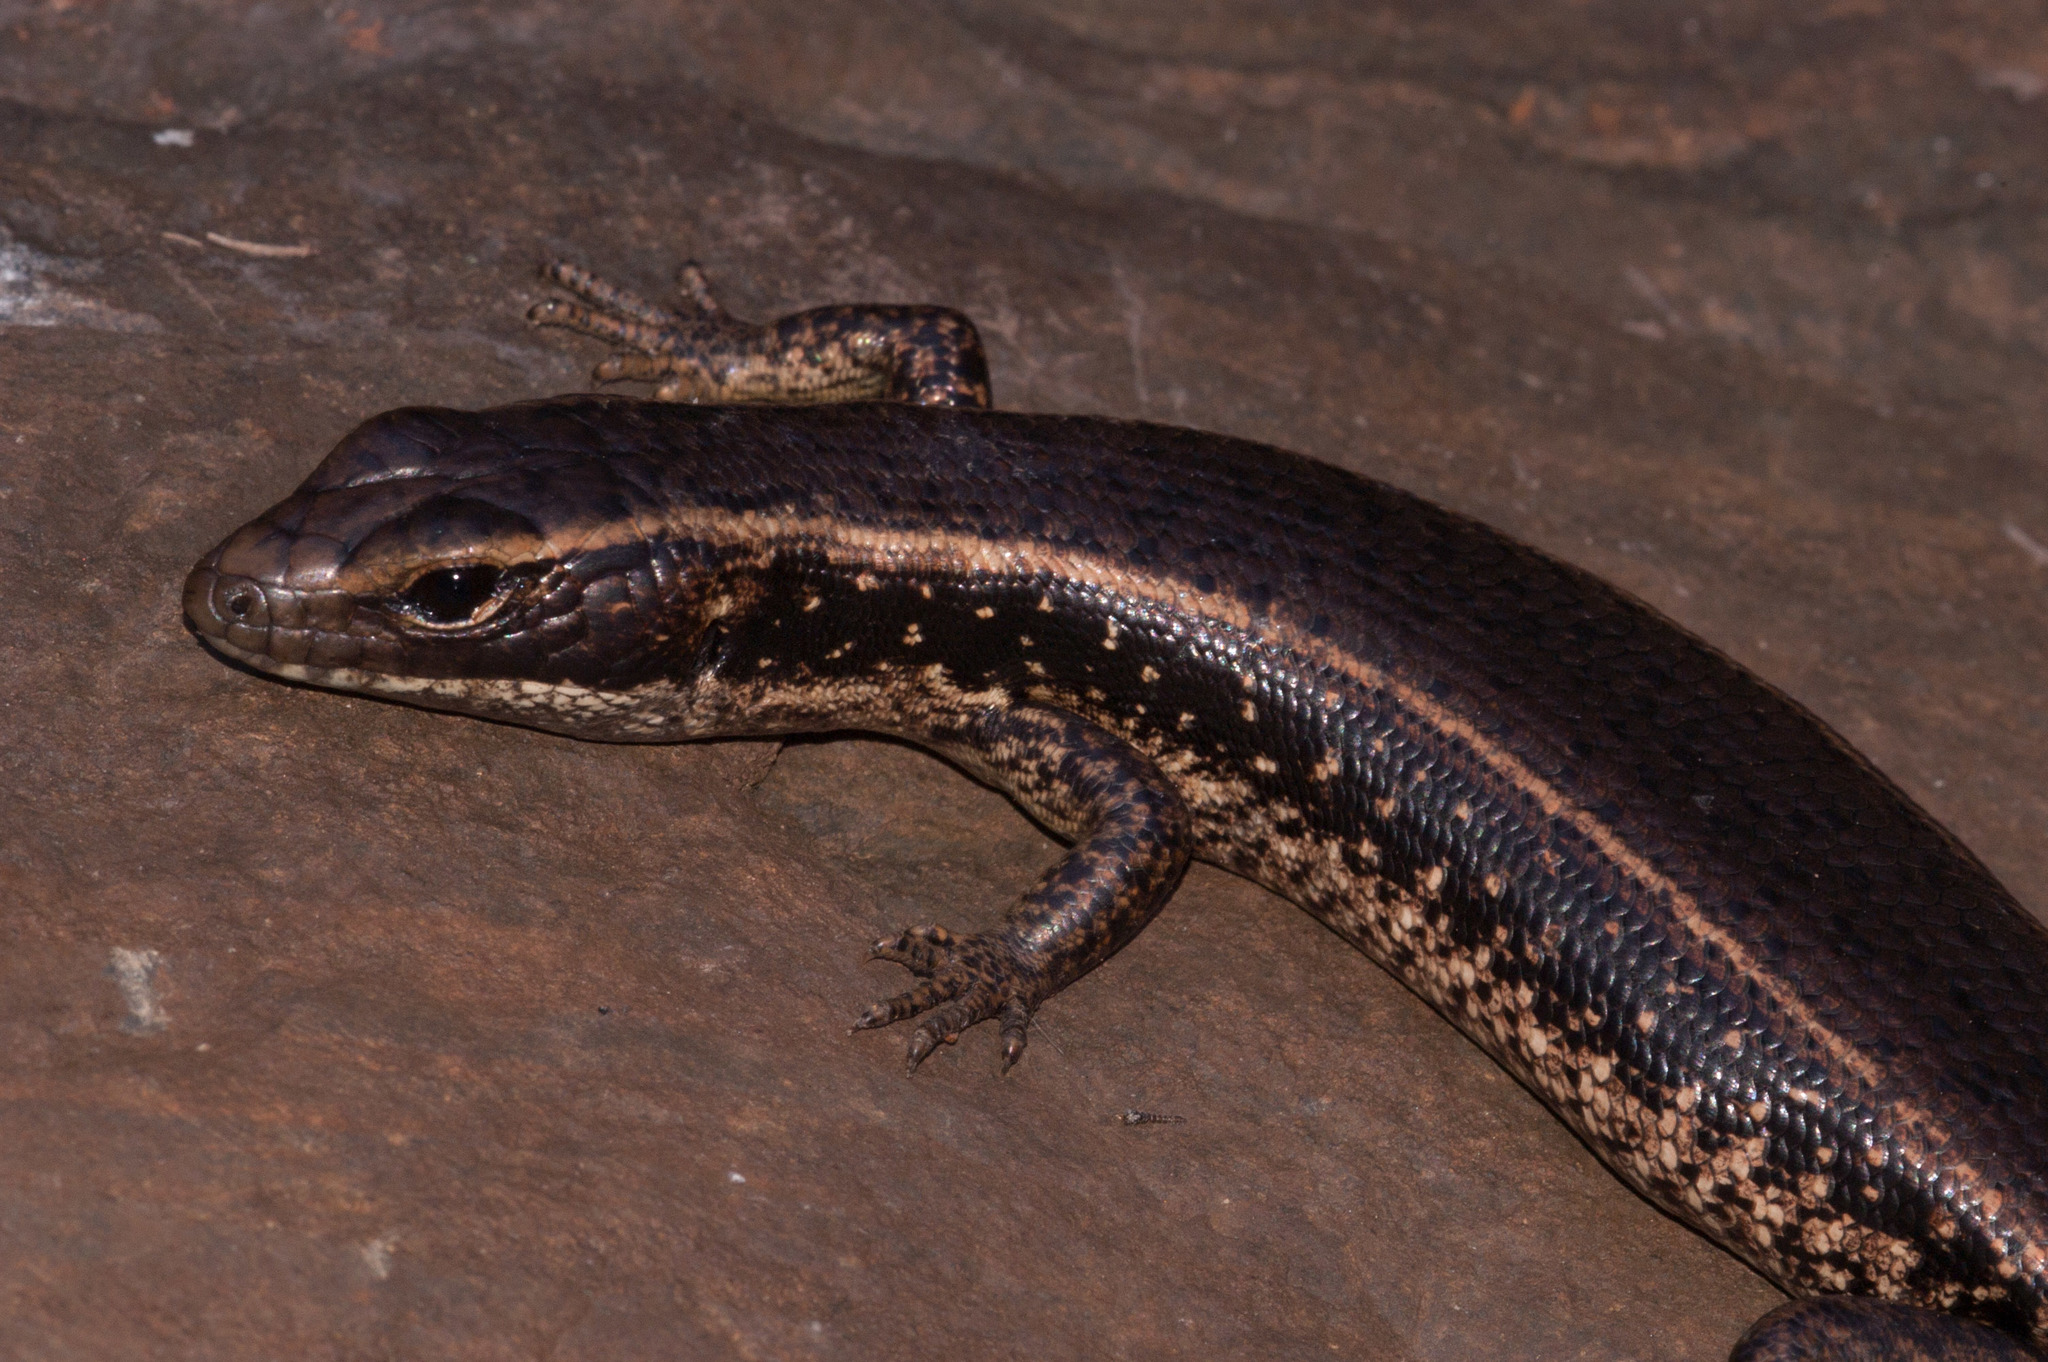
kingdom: Animalia
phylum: Chordata
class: Squamata
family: Scincidae
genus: Eulamprus
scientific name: Eulamprus quoyii
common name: Eastern water skink
